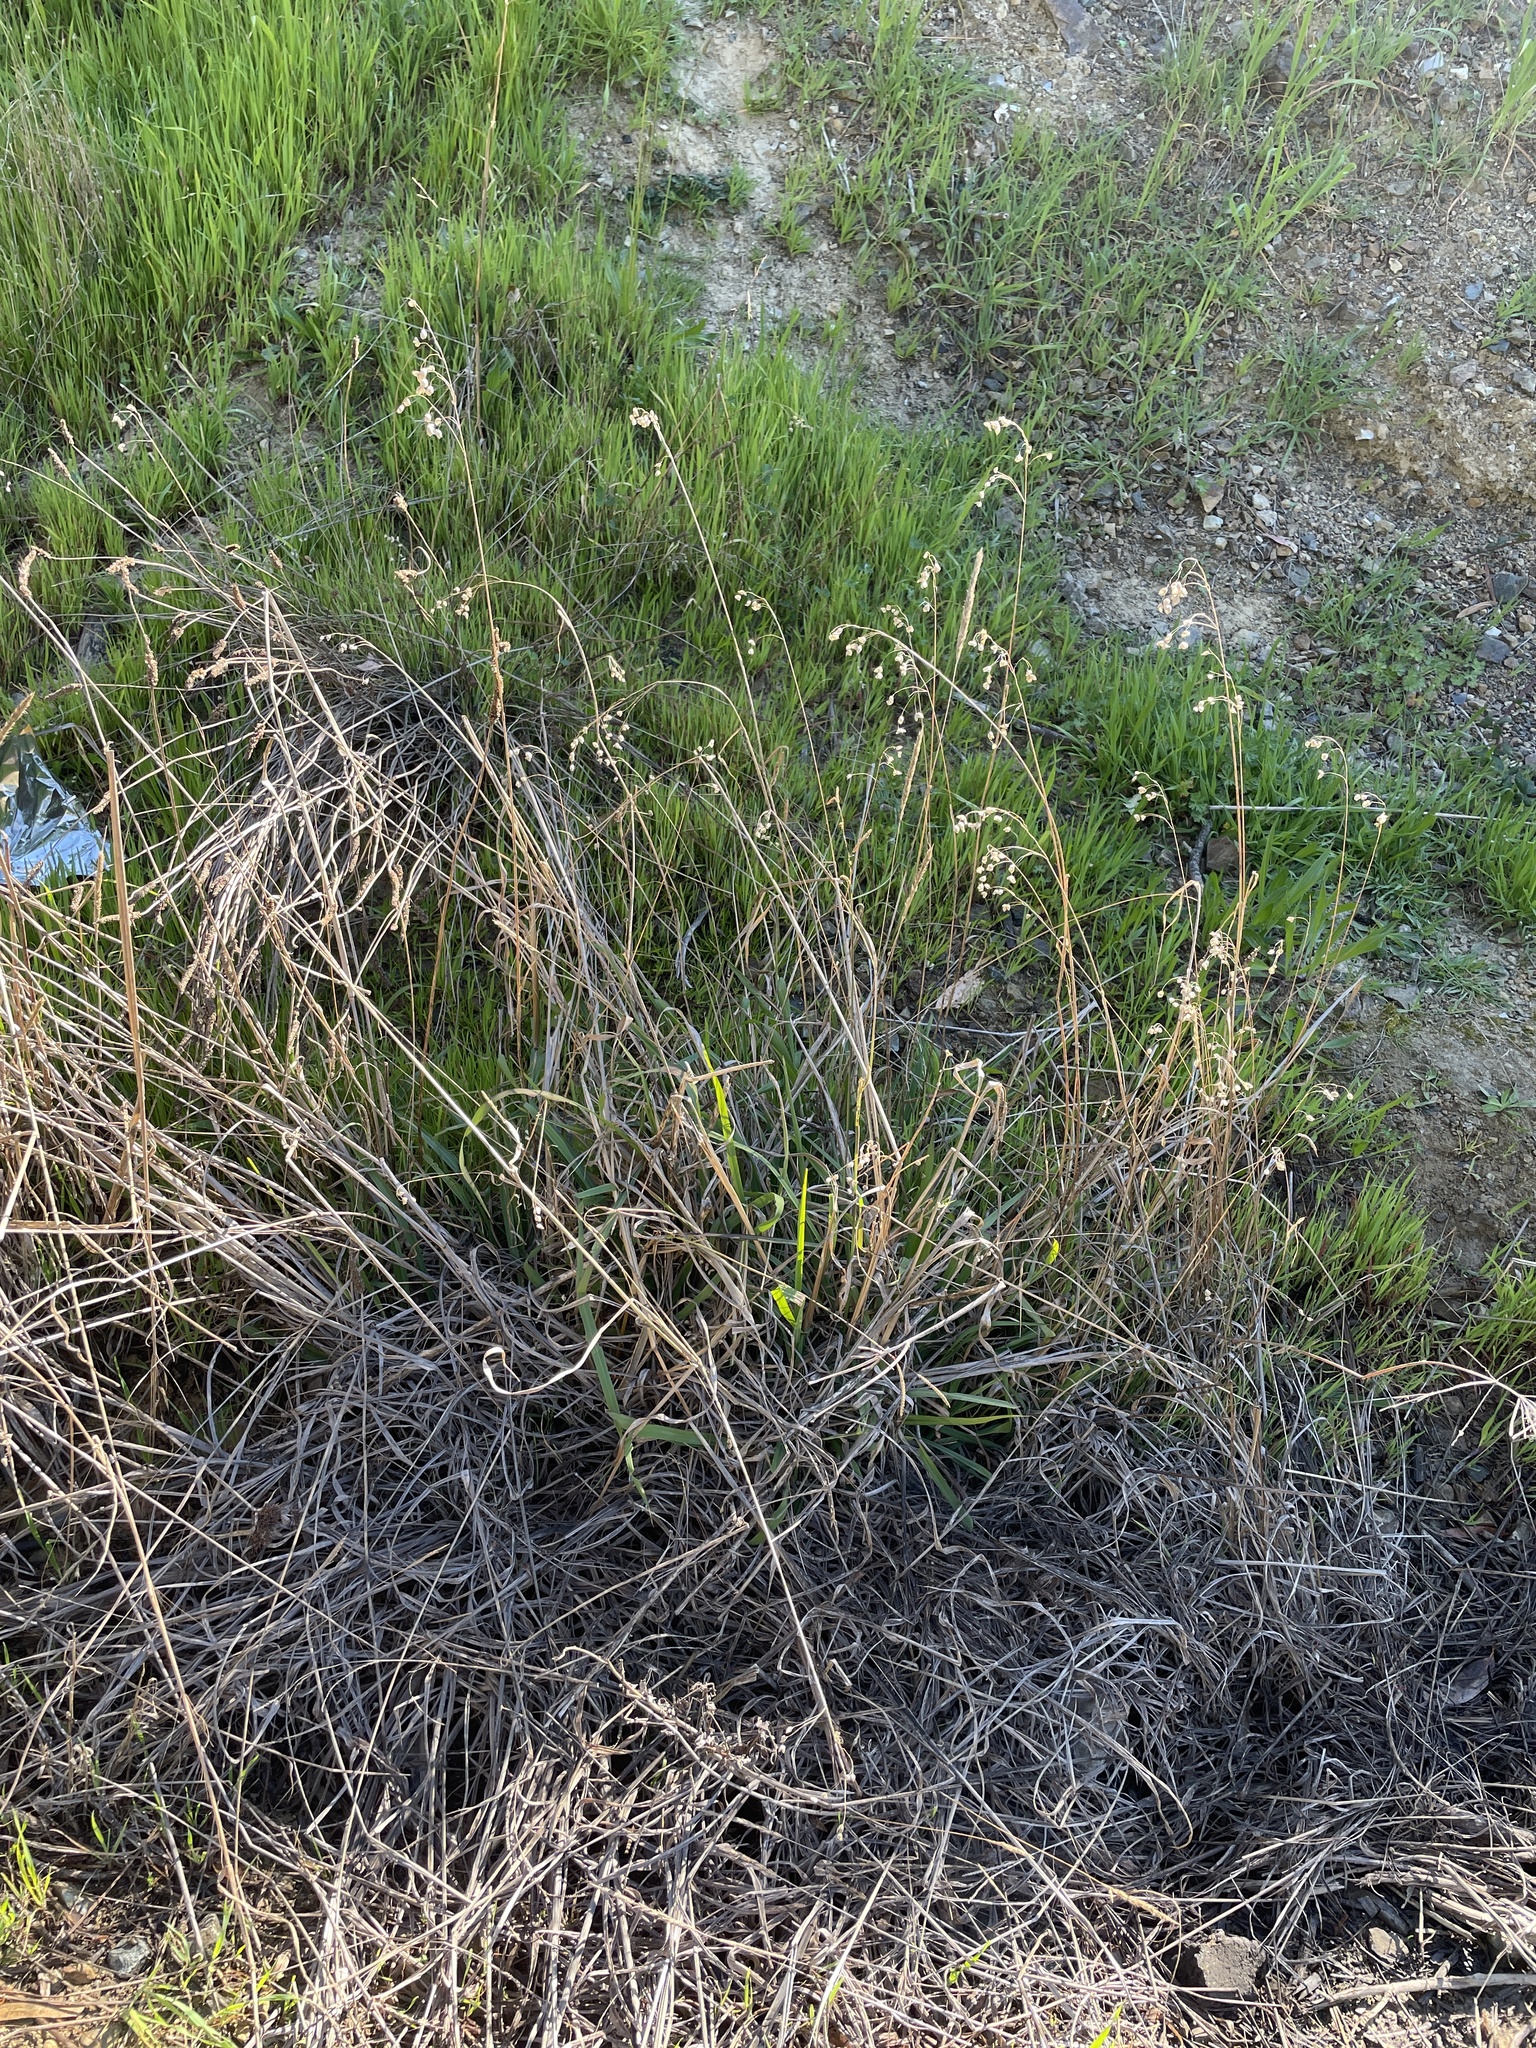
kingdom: Plantae
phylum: Tracheophyta
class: Liliopsida
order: Poales
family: Poaceae
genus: Briza
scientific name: Briza maxima
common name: Big quakinggrass
